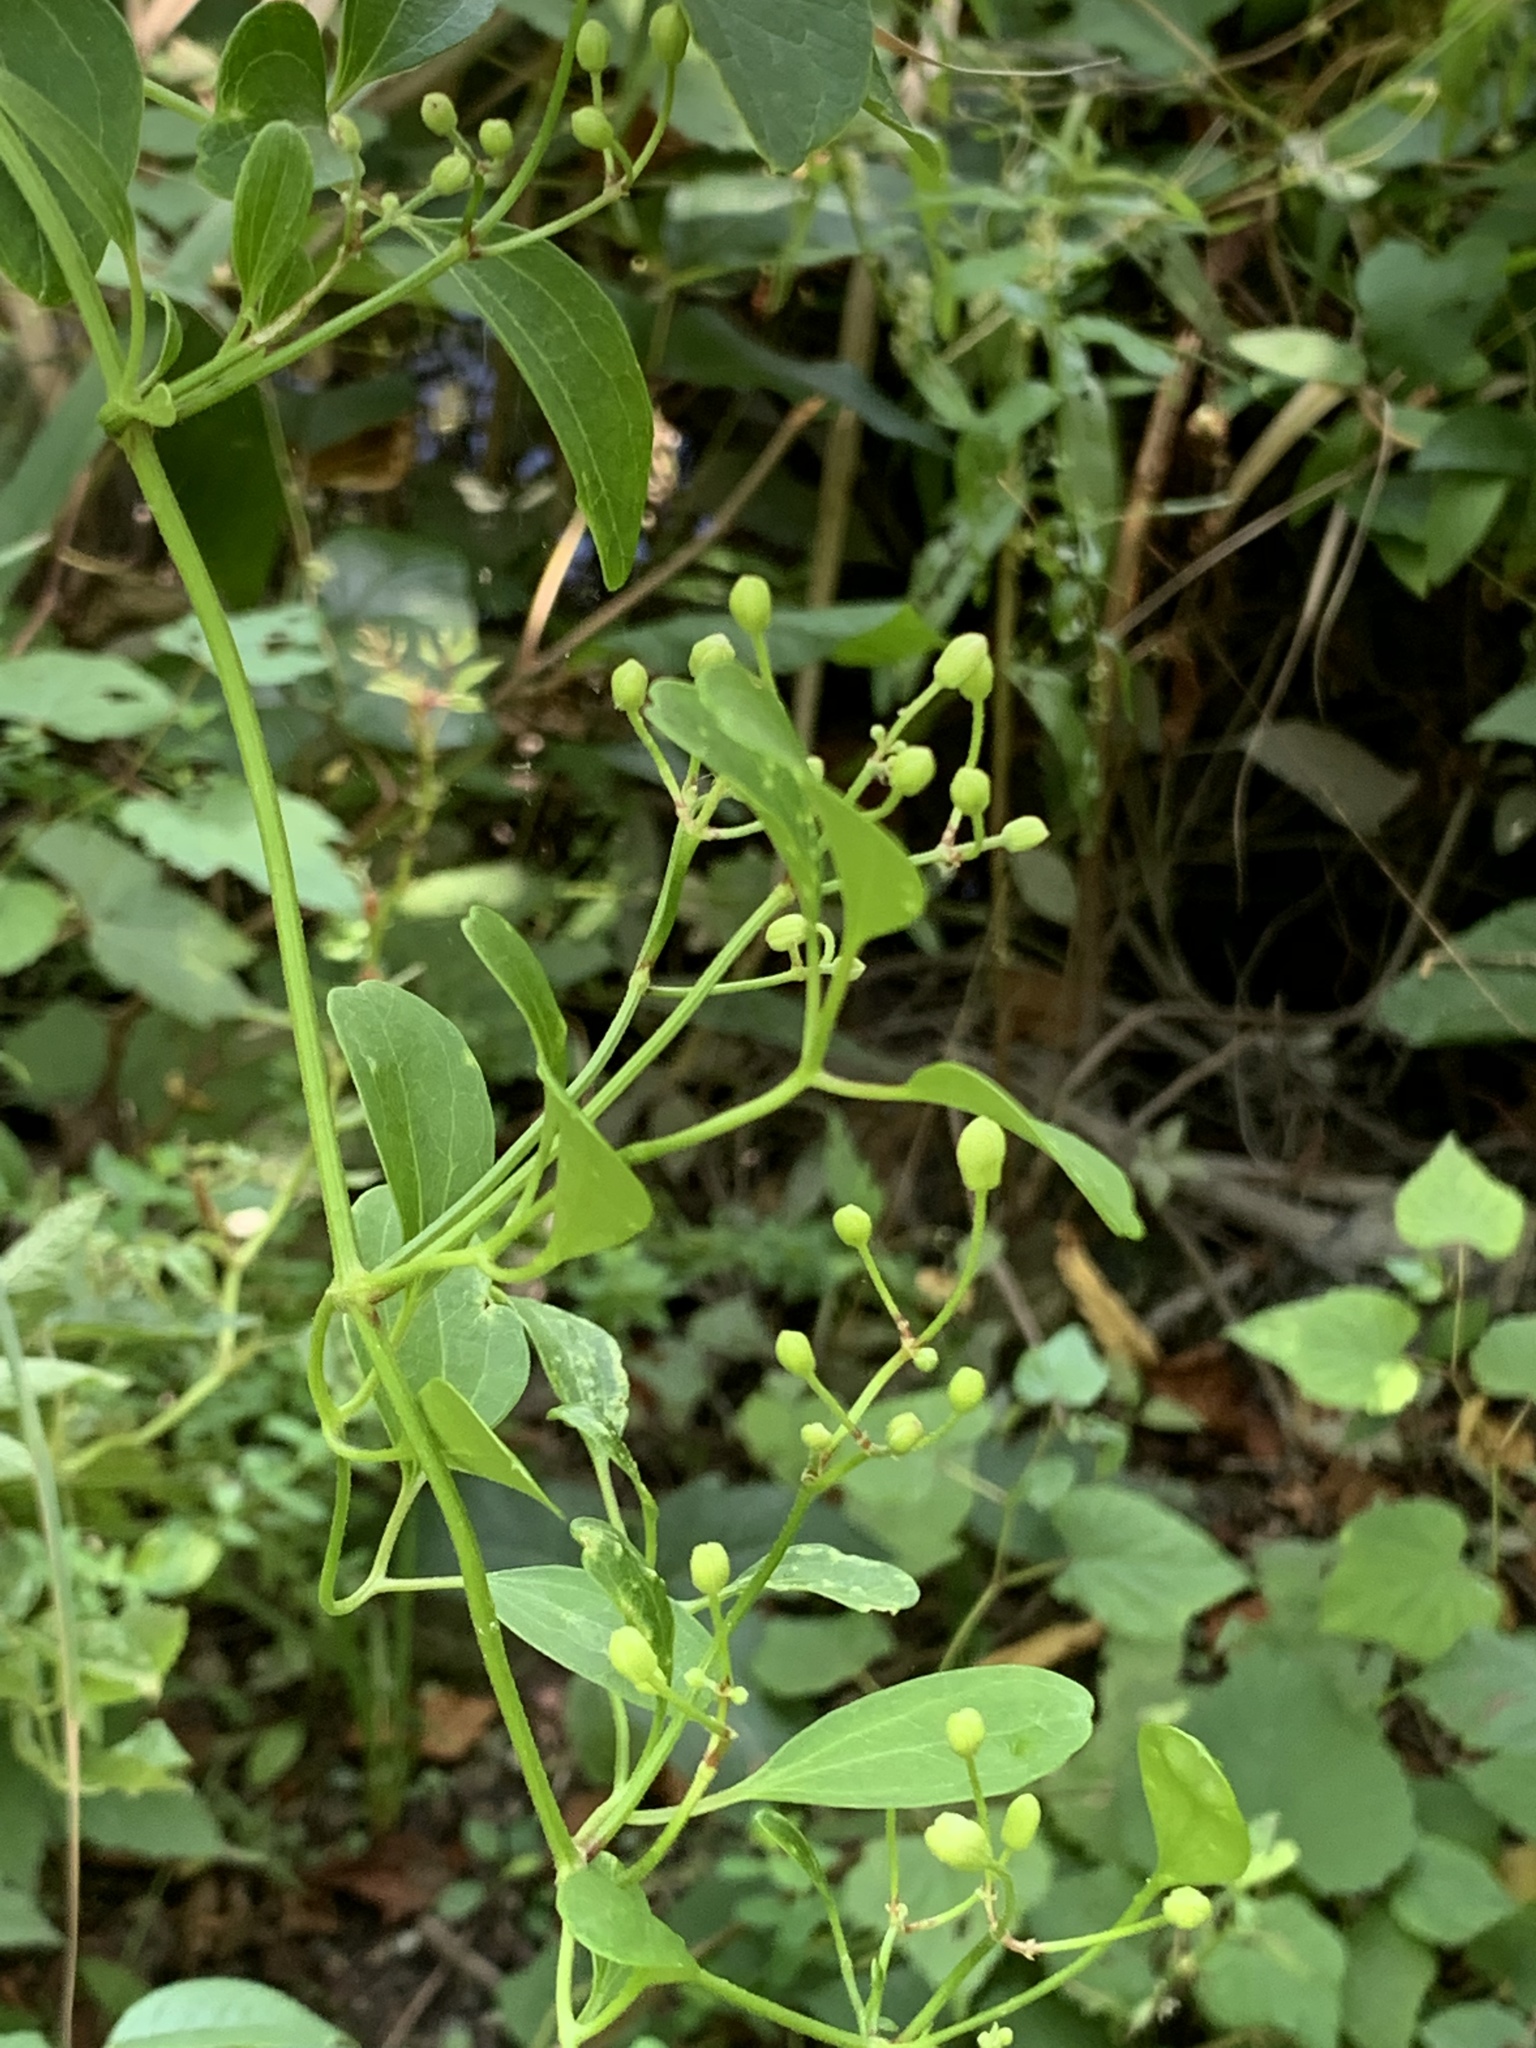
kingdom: Plantae
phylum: Tracheophyta
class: Magnoliopsida
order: Ranunculales
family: Ranunculaceae
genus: Clematis
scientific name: Clematis terniflora
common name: Sweet autumn clematis
